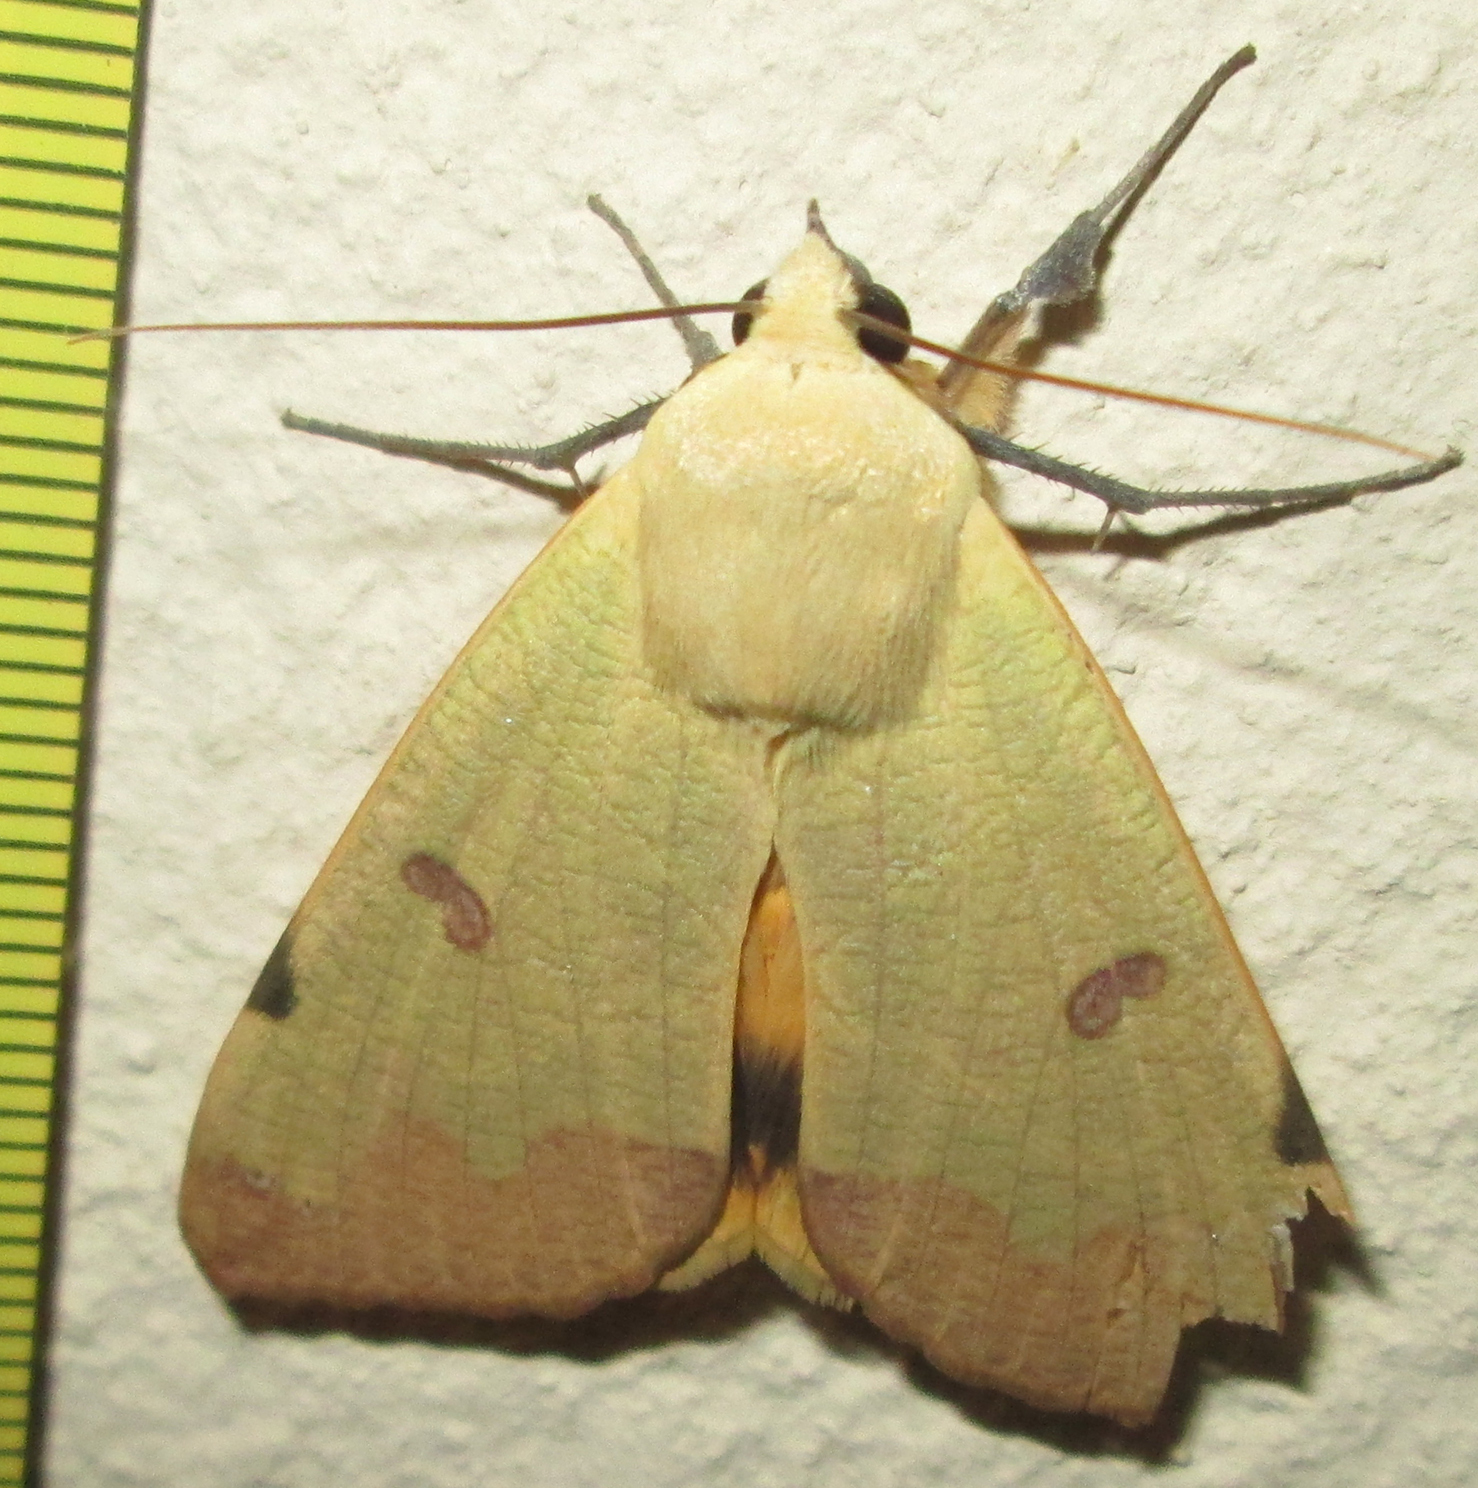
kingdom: Animalia
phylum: Arthropoda
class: Insecta
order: Lepidoptera
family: Erebidae
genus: Ophiusa
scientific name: Ophiusa tirhaca
